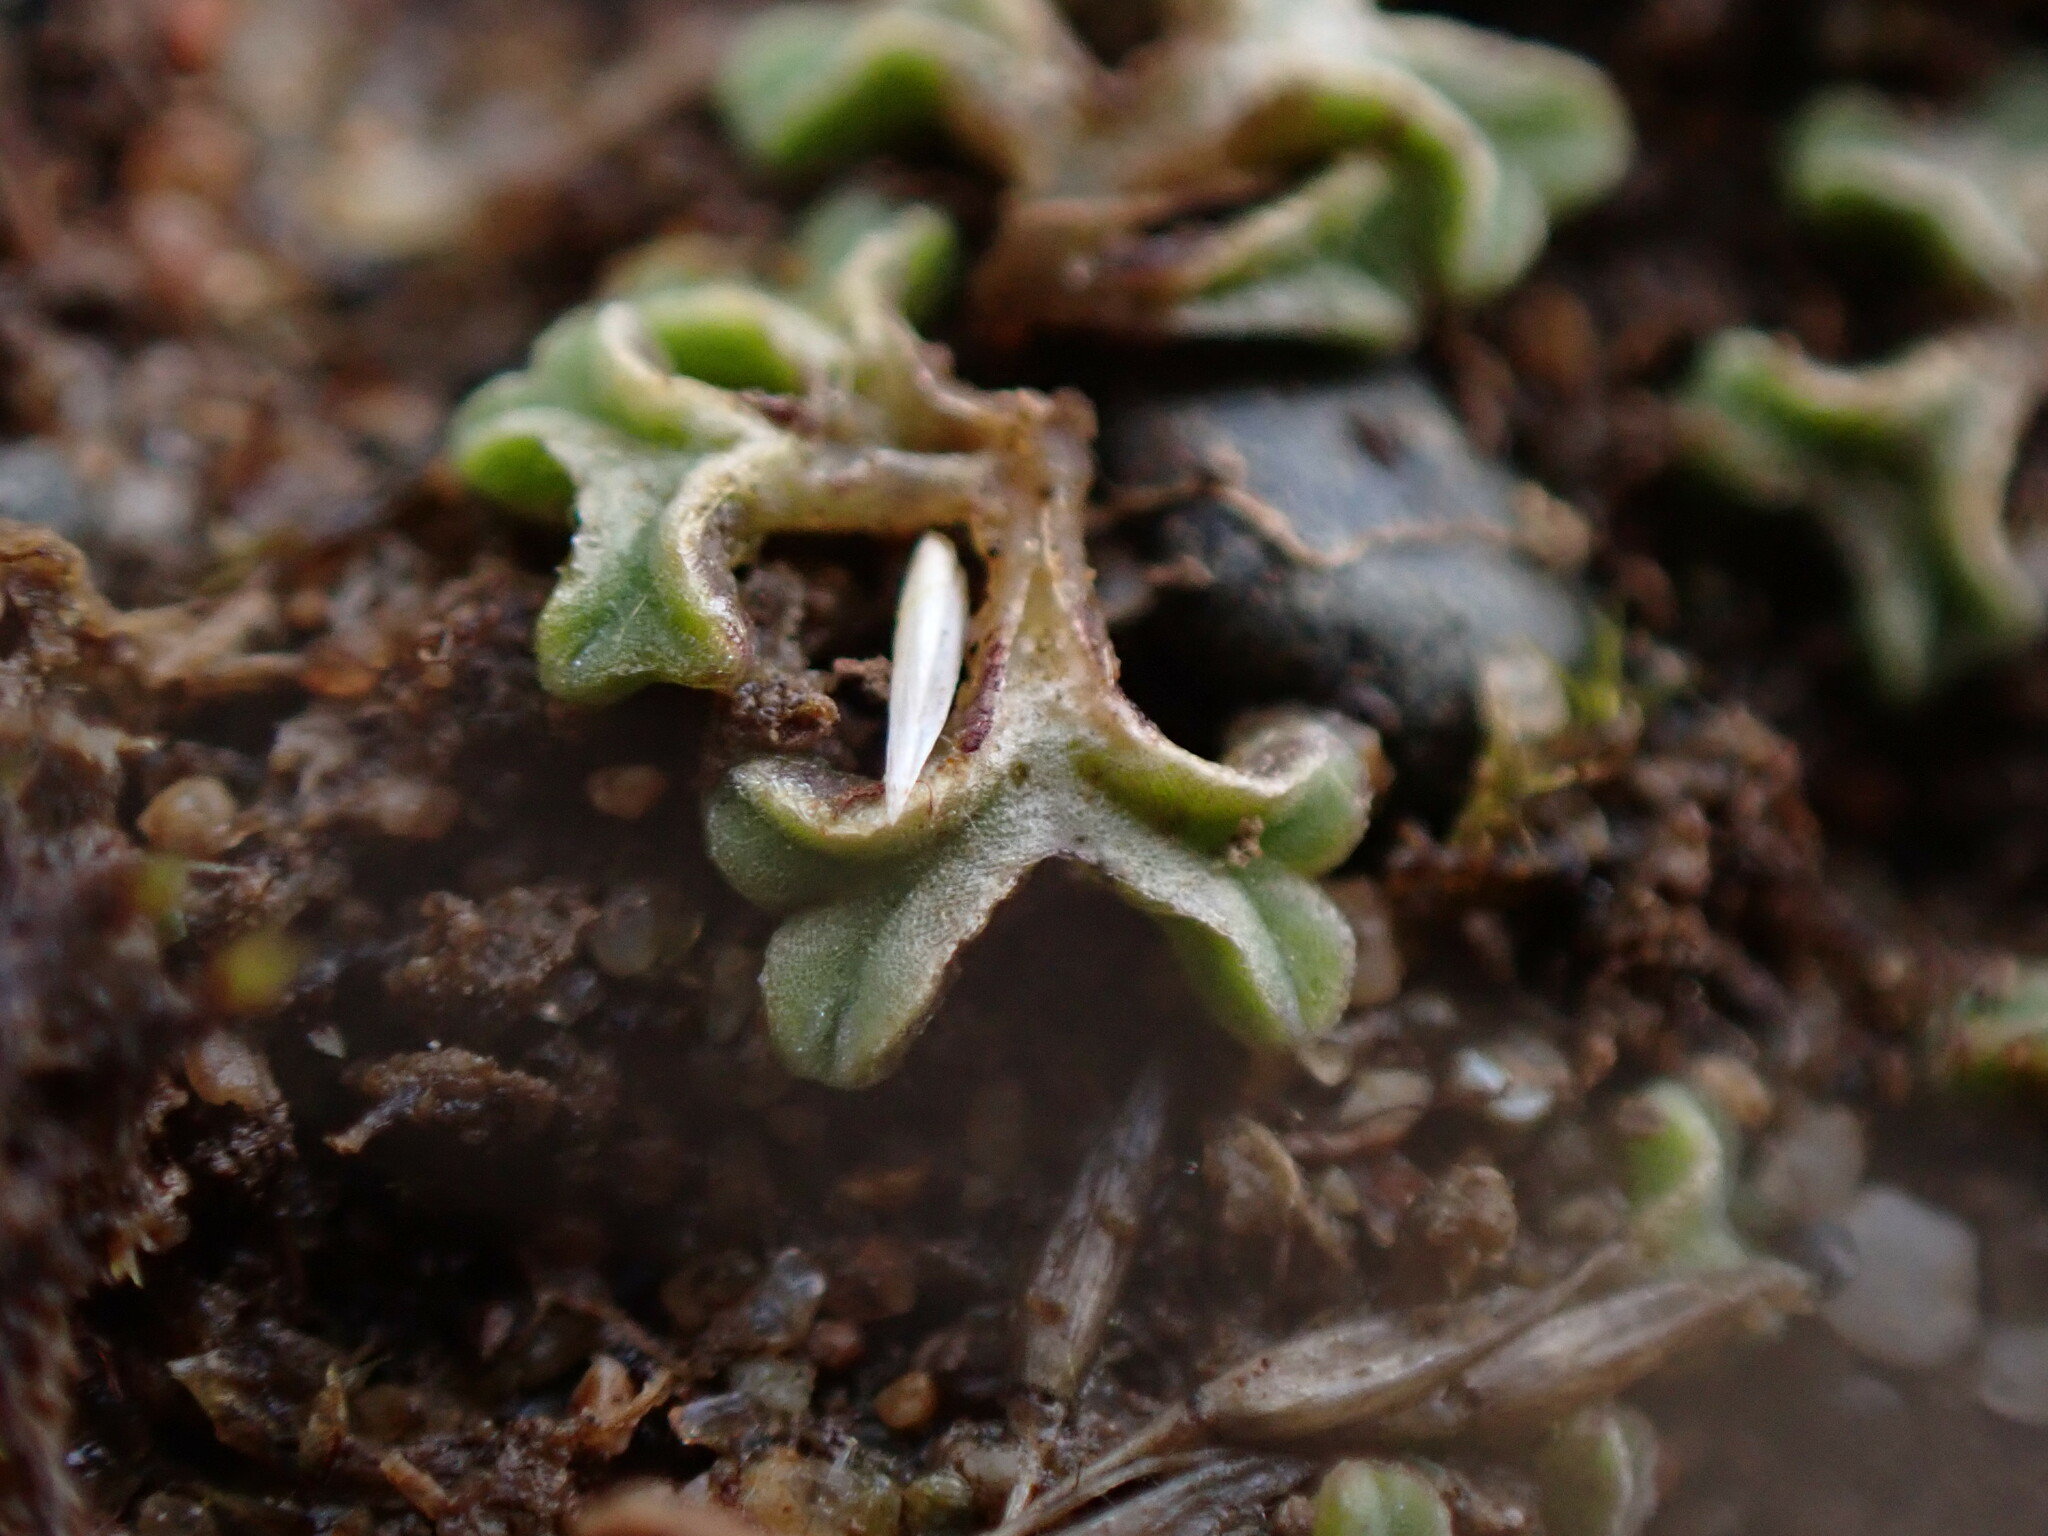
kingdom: Plantae
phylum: Marchantiophyta
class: Marchantiopsida
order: Marchantiales
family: Ricciaceae
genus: Riccia
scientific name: Riccia sorocarpa
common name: Common crystalwort
